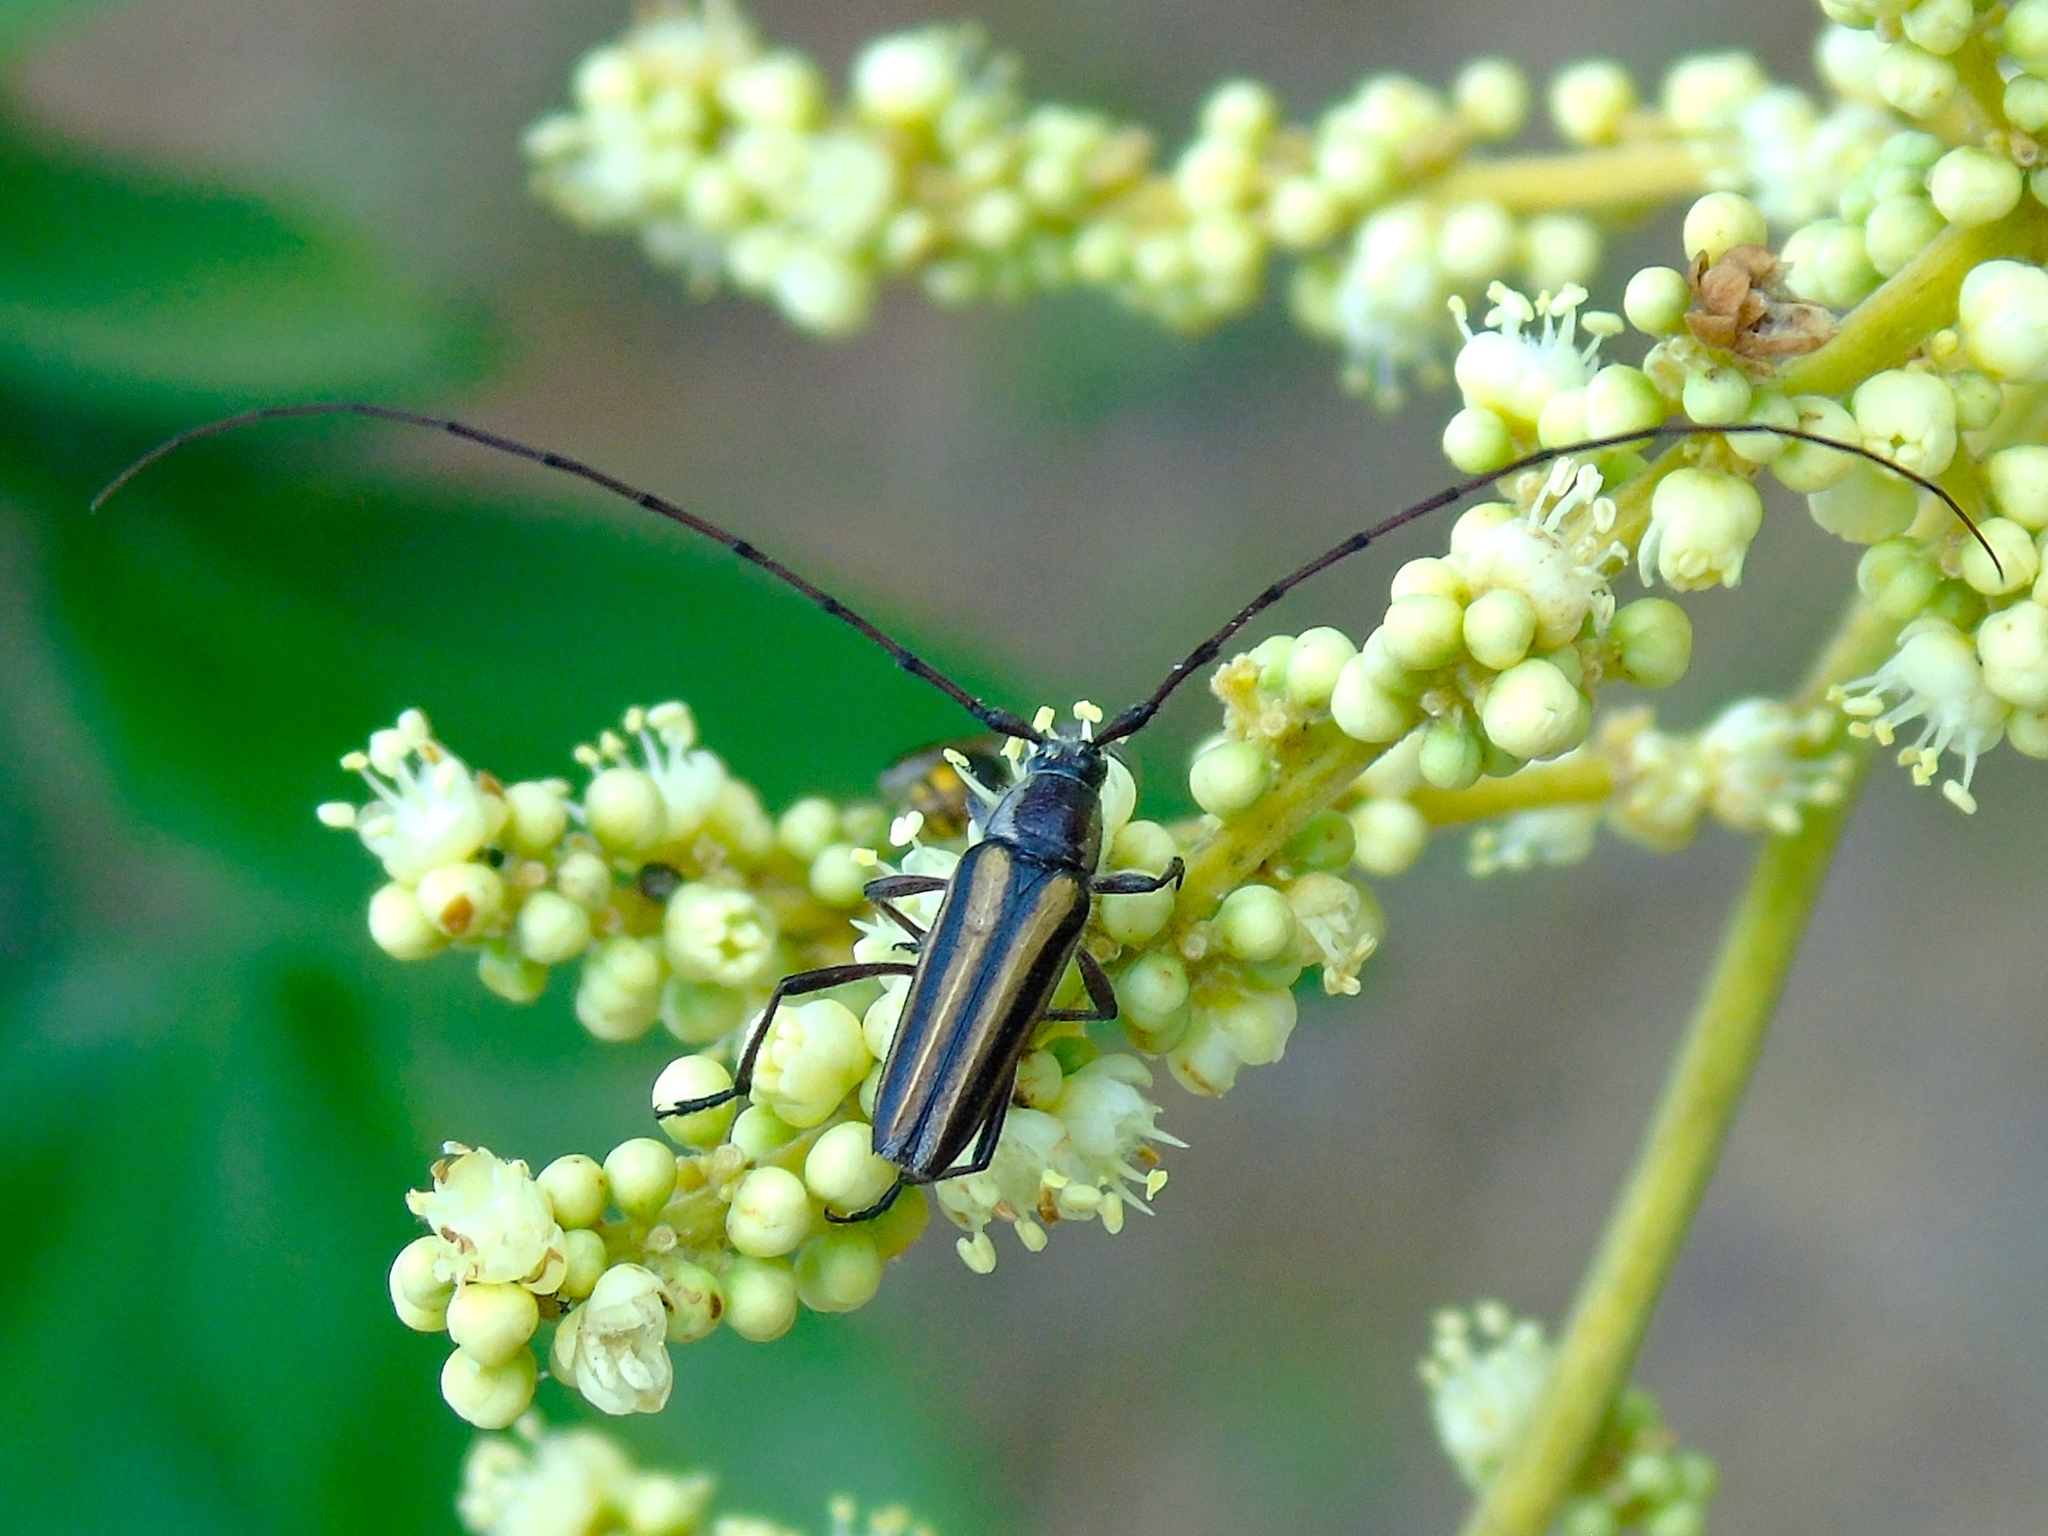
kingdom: Animalia
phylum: Arthropoda
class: Insecta
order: Coleoptera
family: Cerambycidae
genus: Sphaenothecus
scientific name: Sphaenothecus bilineatus
